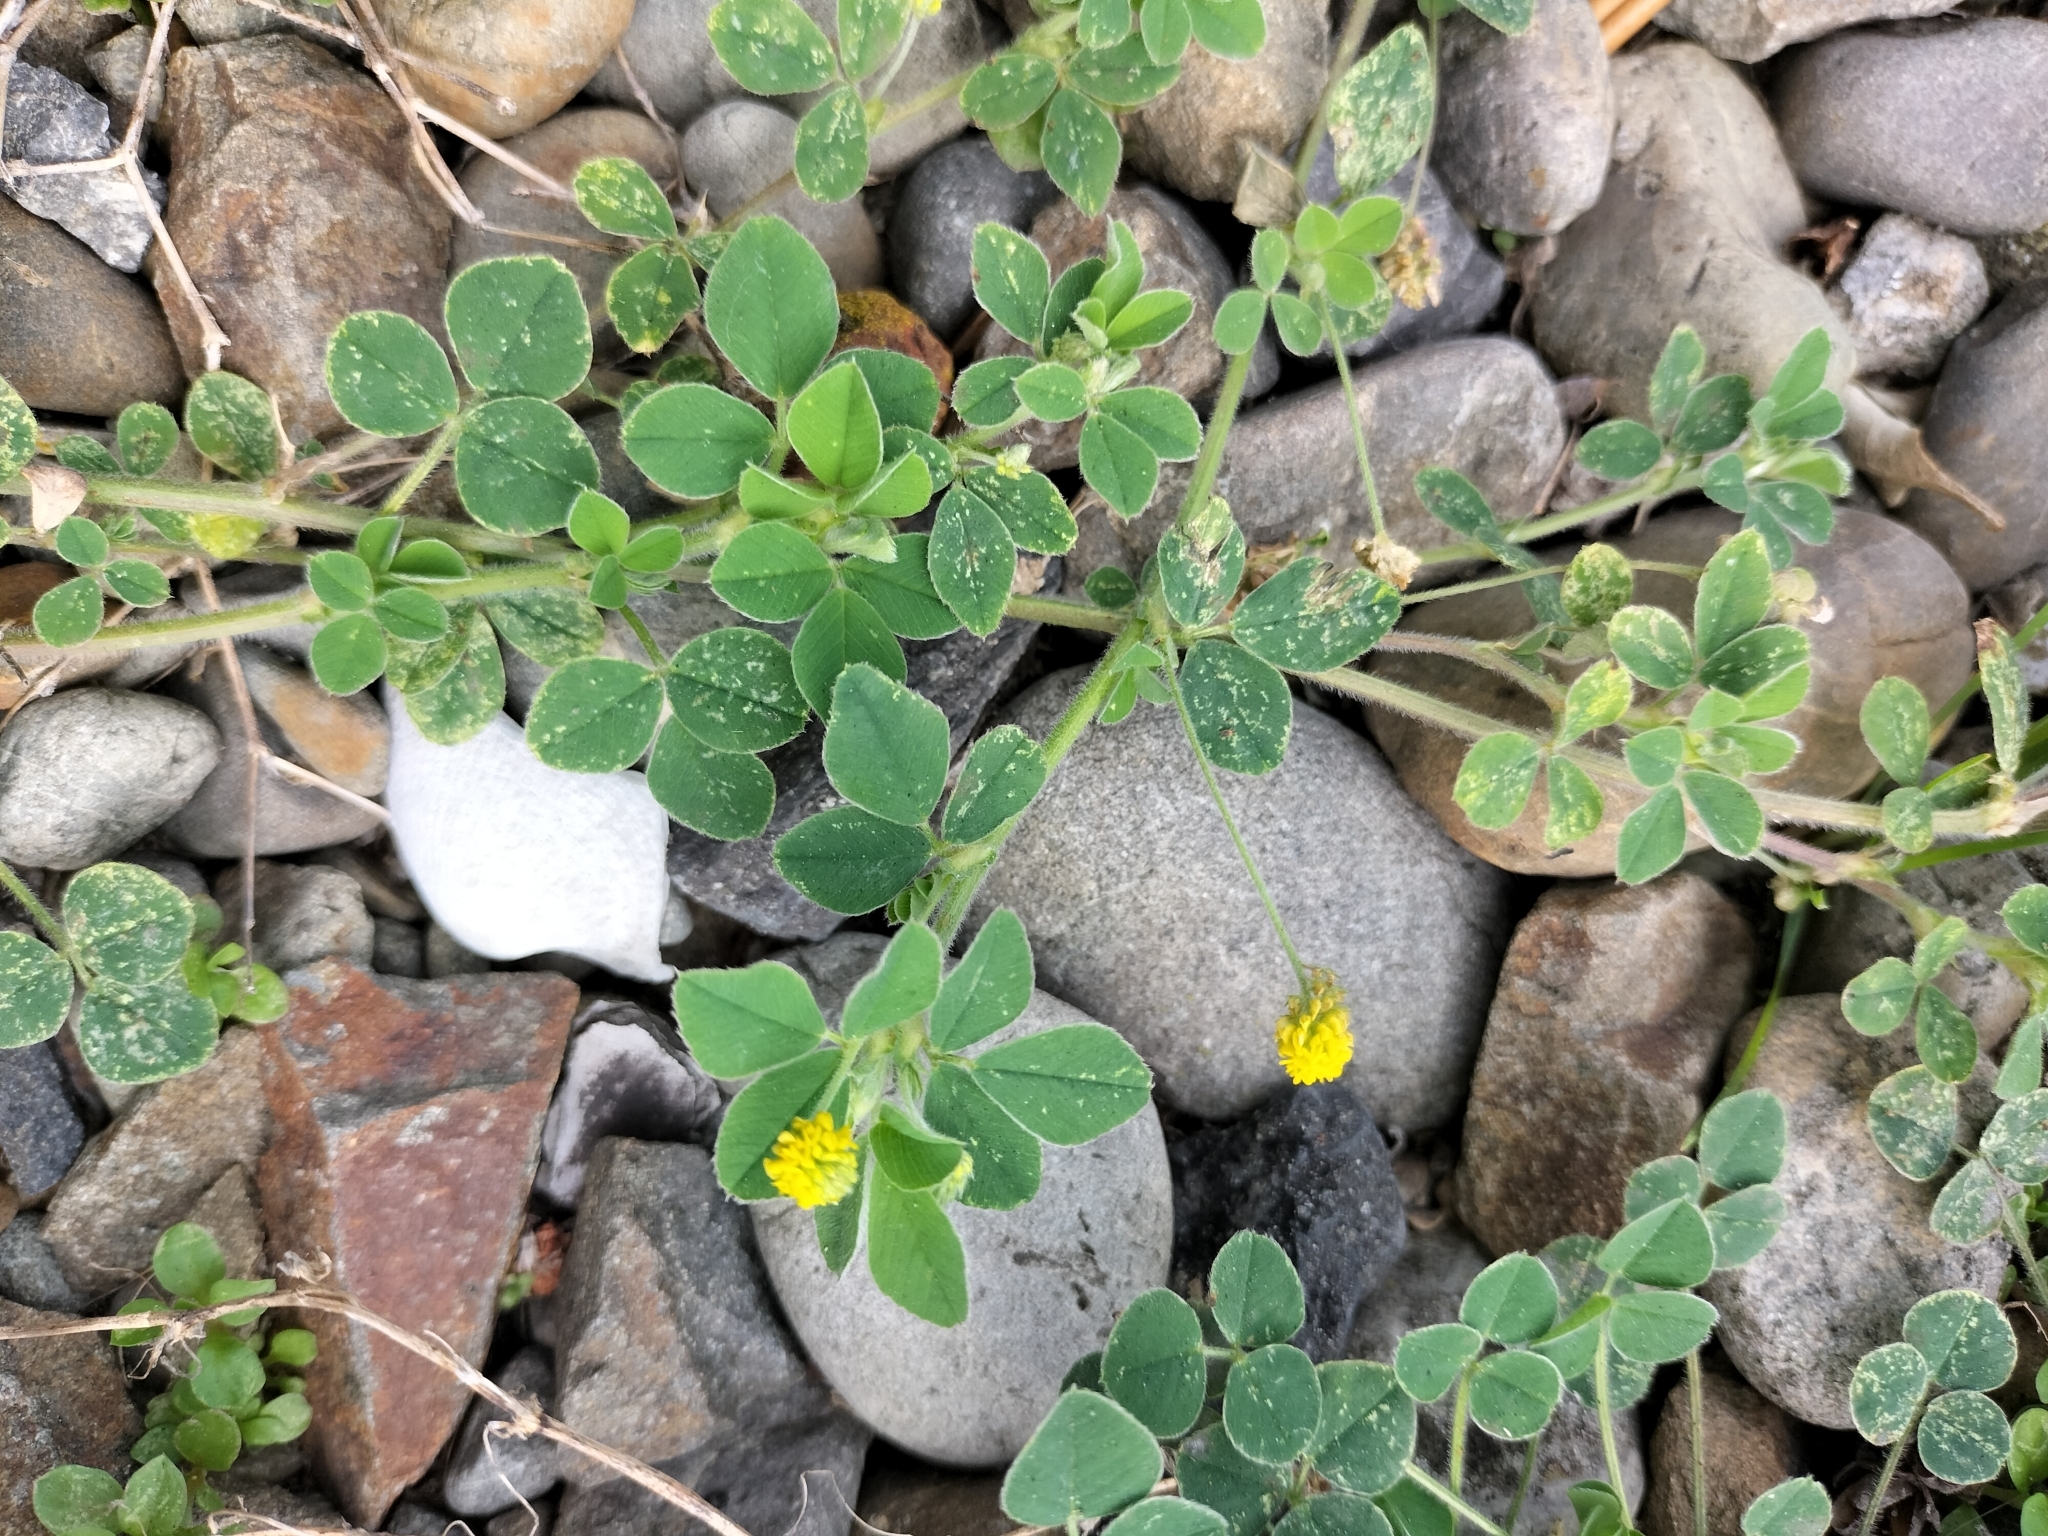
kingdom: Plantae
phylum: Tracheophyta
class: Magnoliopsida
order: Fabales
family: Fabaceae
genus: Medicago
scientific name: Medicago lupulina
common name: Black medick
